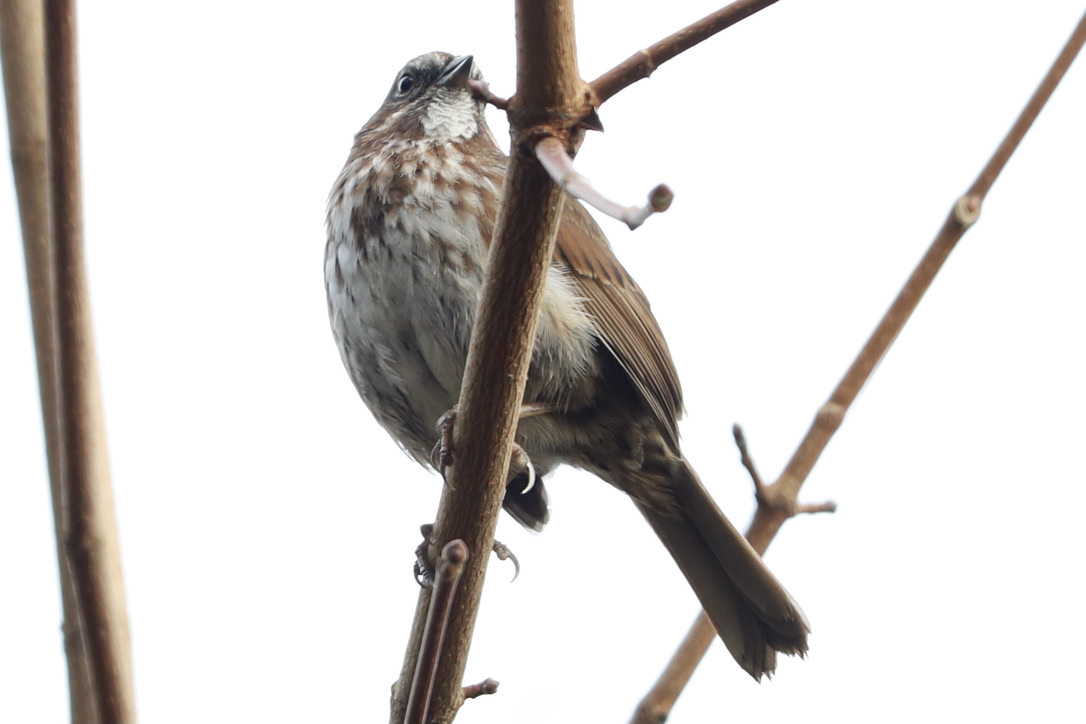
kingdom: Animalia
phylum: Chordata
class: Aves
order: Passeriformes
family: Passerellidae
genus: Melospiza
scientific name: Melospiza melodia
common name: Song sparrow
